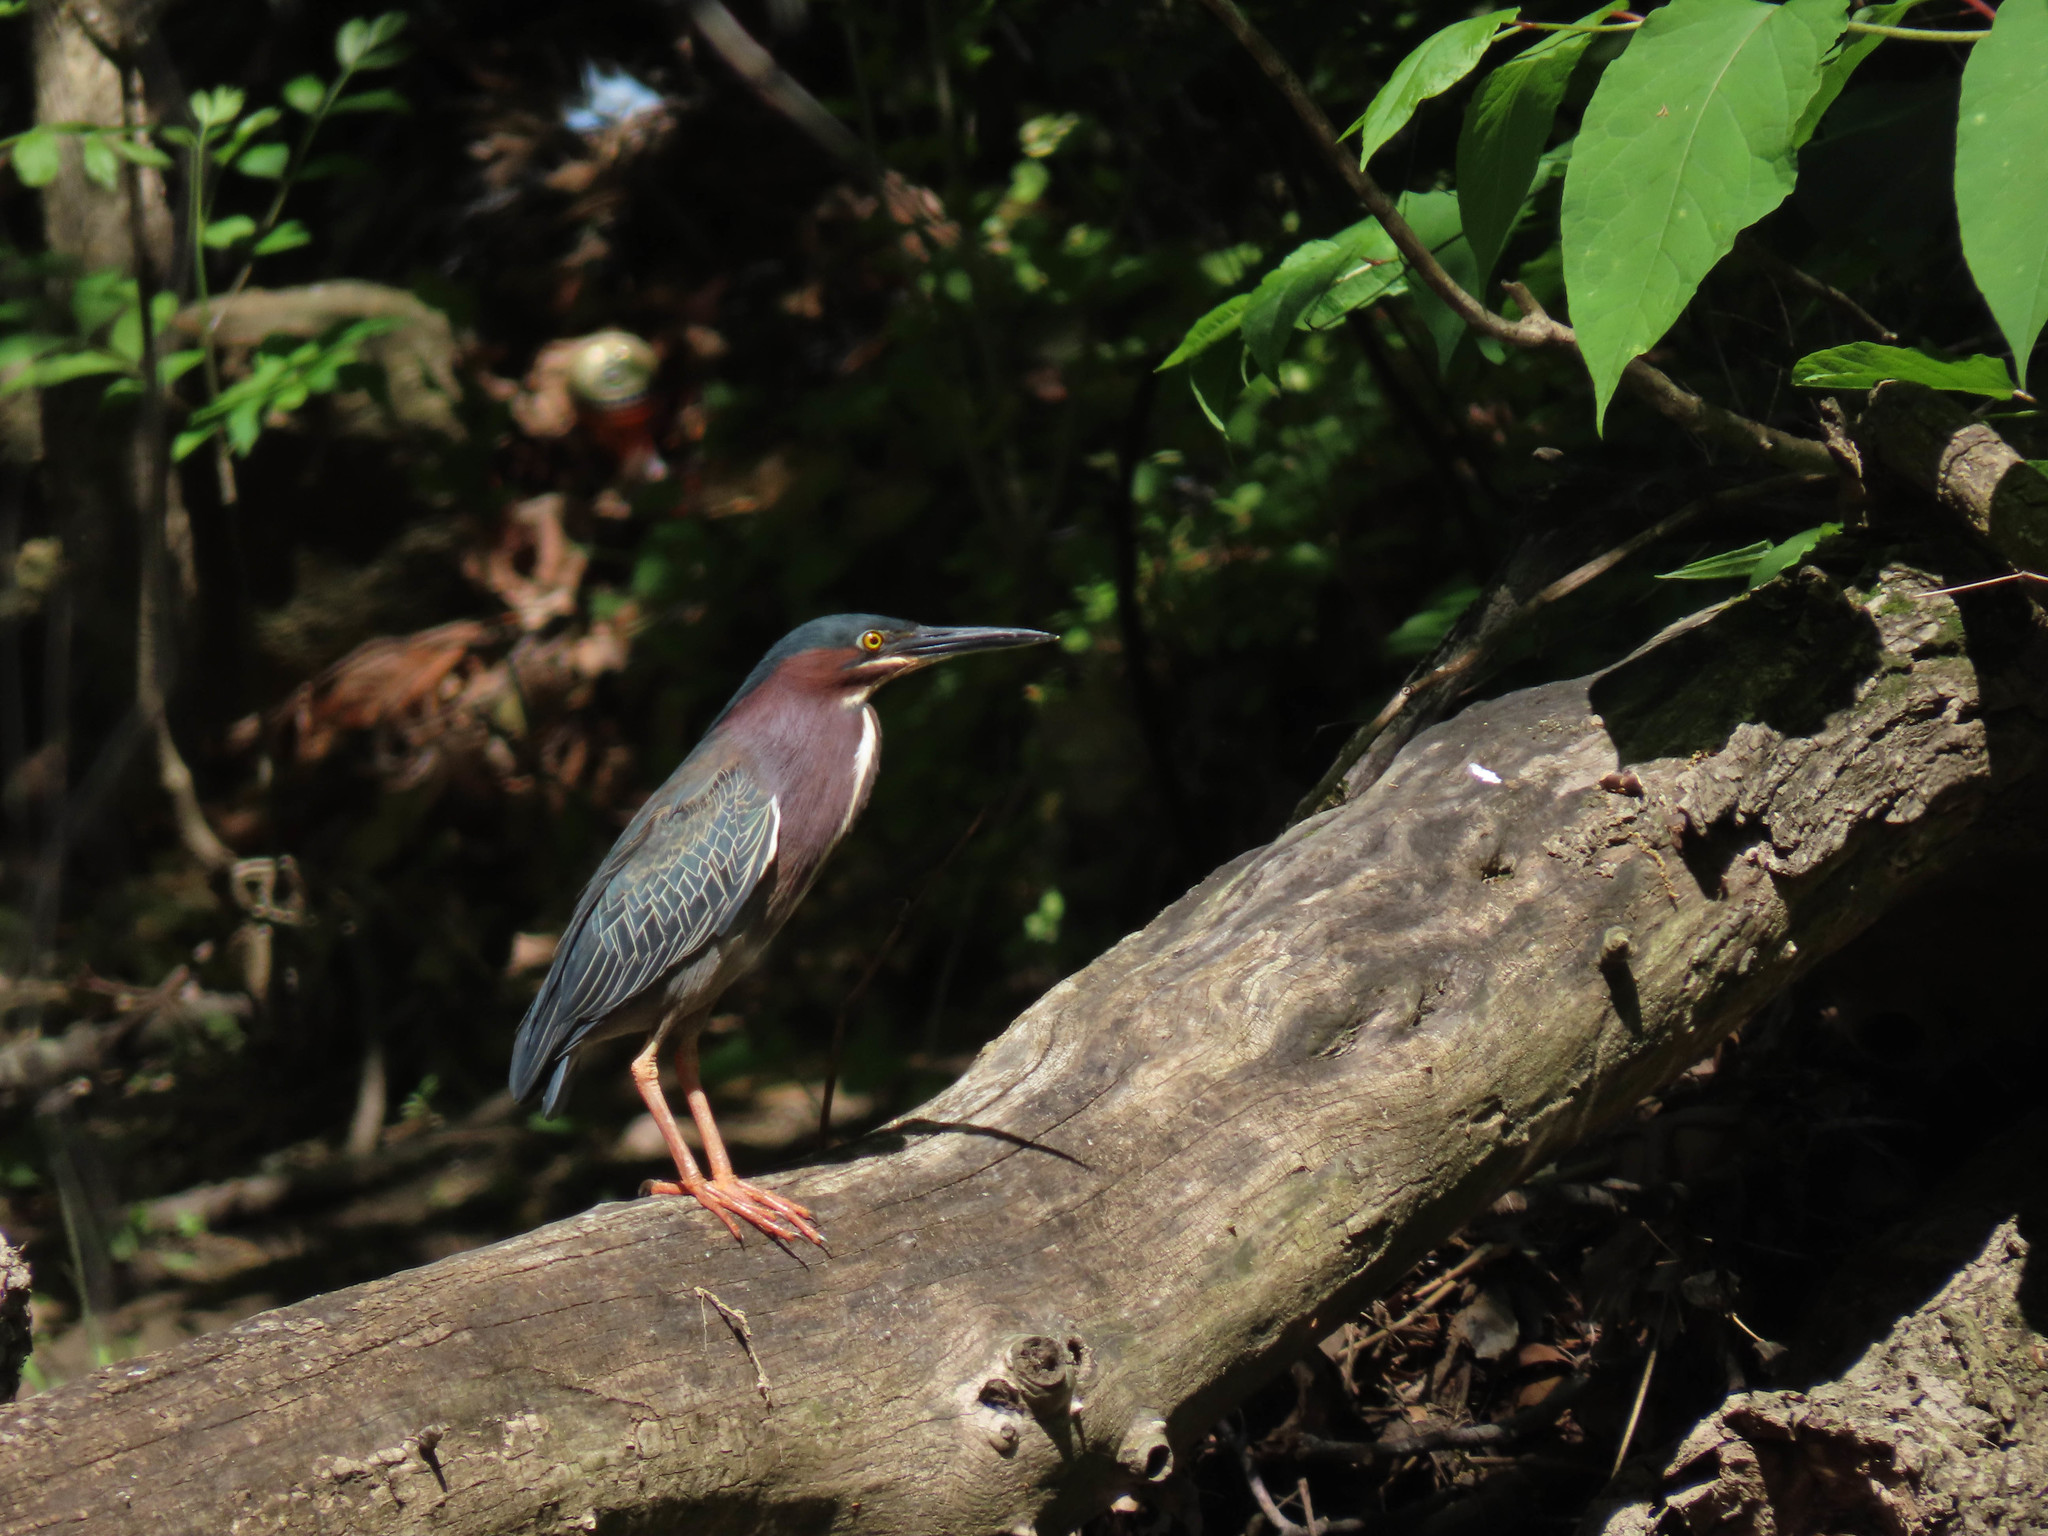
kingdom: Animalia
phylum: Chordata
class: Aves
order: Pelecaniformes
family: Ardeidae
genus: Butorides
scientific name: Butorides virescens
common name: Green heron
